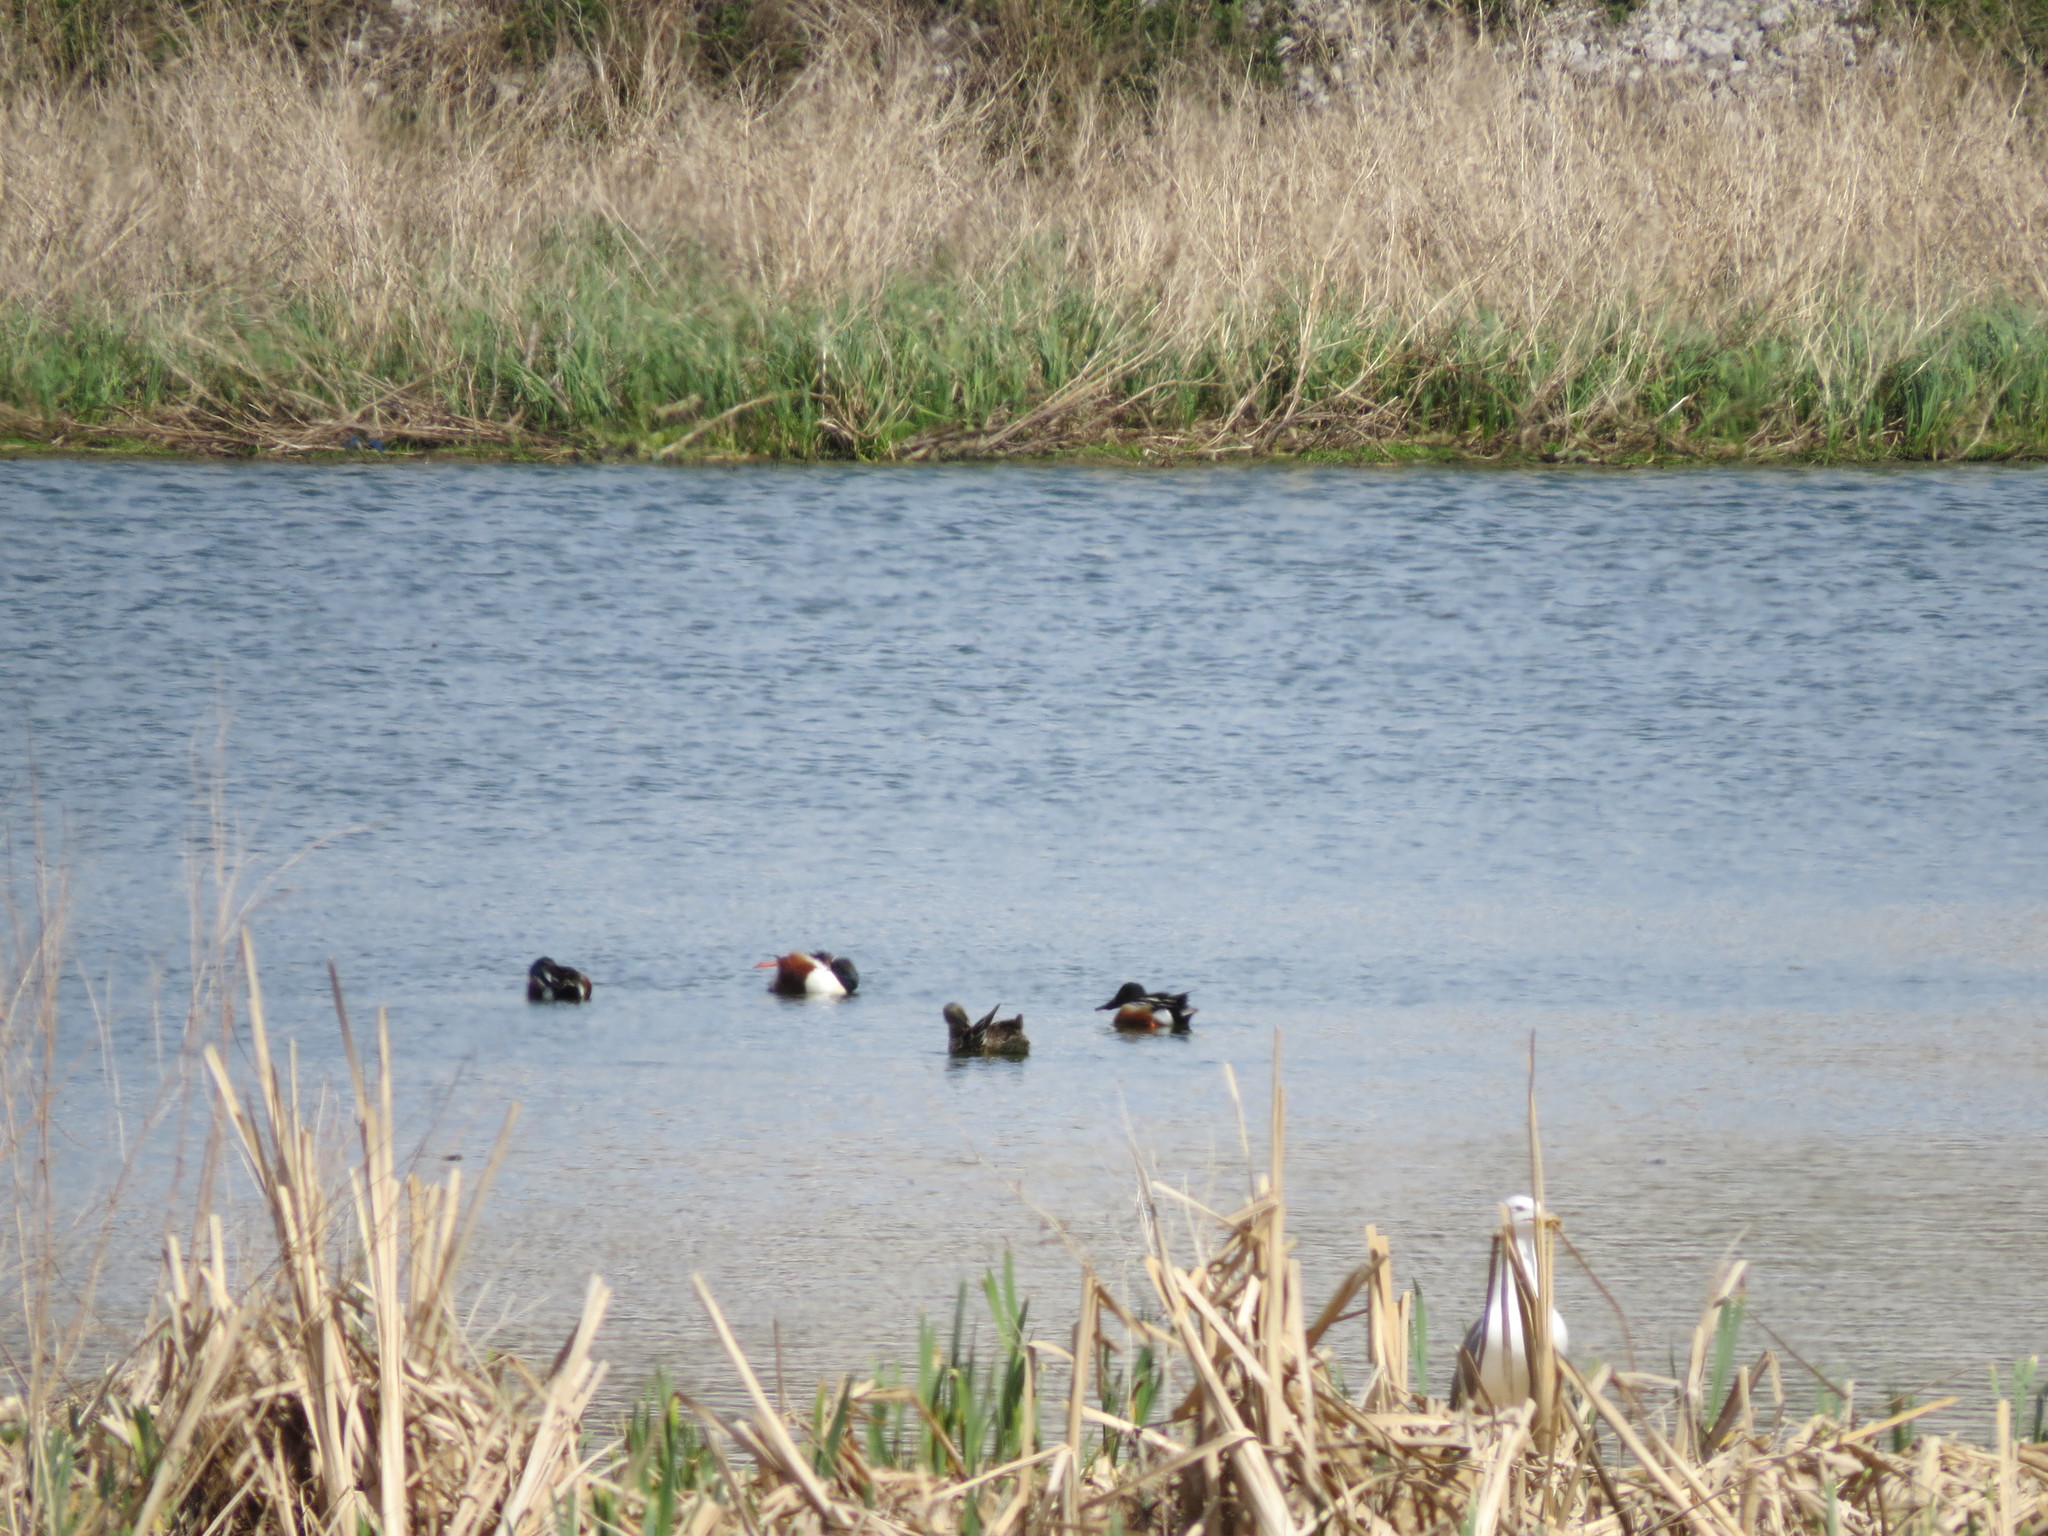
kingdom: Animalia
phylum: Chordata
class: Aves
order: Anseriformes
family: Anatidae
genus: Spatula
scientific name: Spatula clypeata
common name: Northern shoveler
